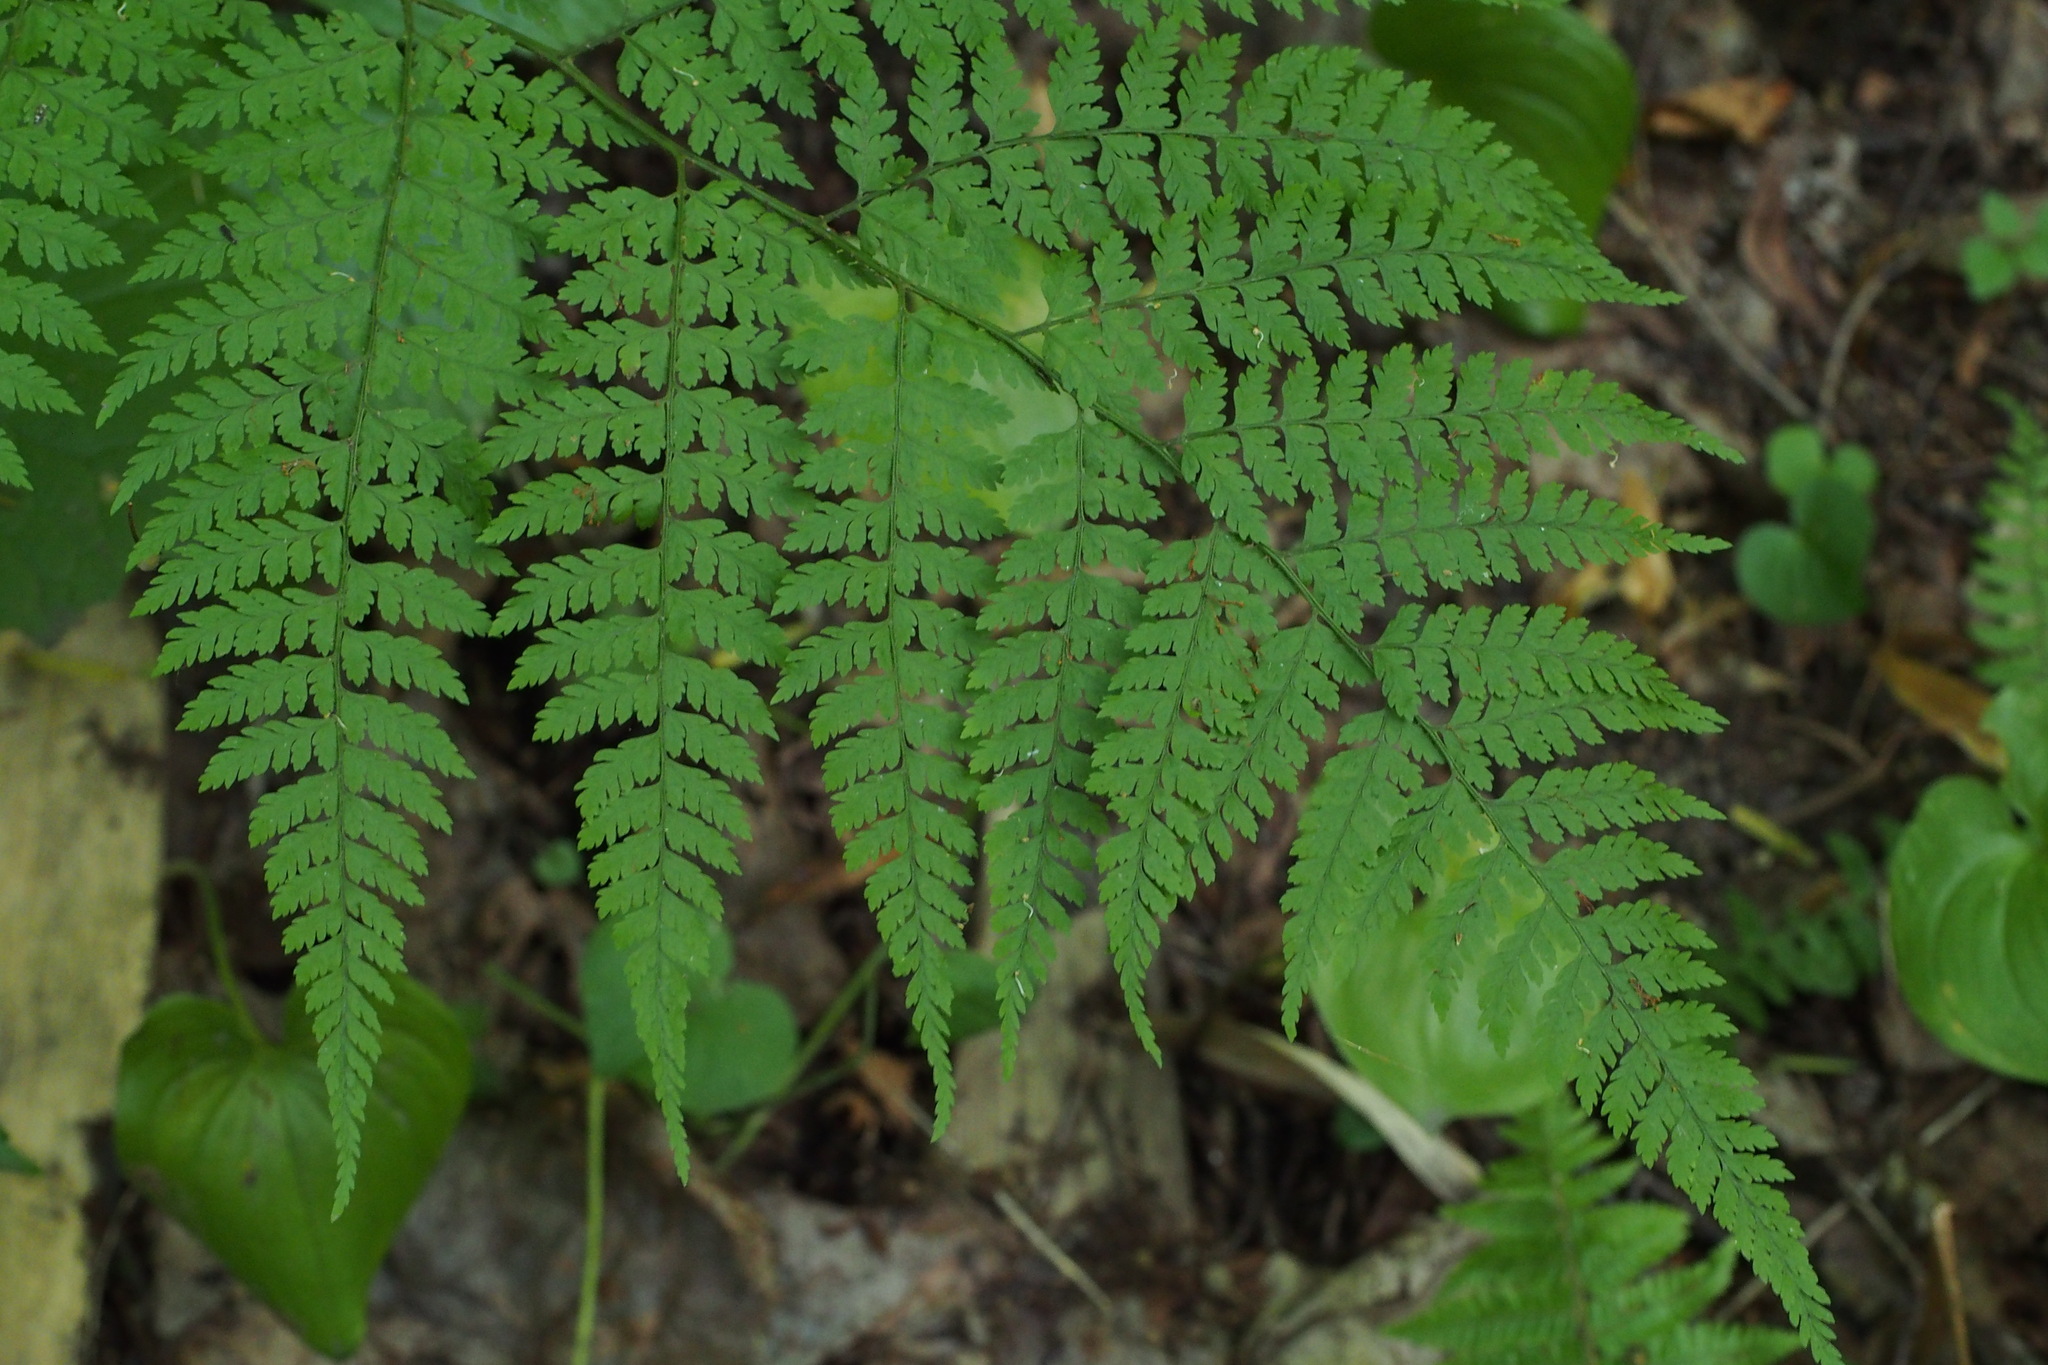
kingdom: Plantae
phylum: Tracheophyta
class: Polypodiopsida
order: Polypodiales
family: Dryopteridaceae
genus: Arachniodes
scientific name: Arachniodes standishii
